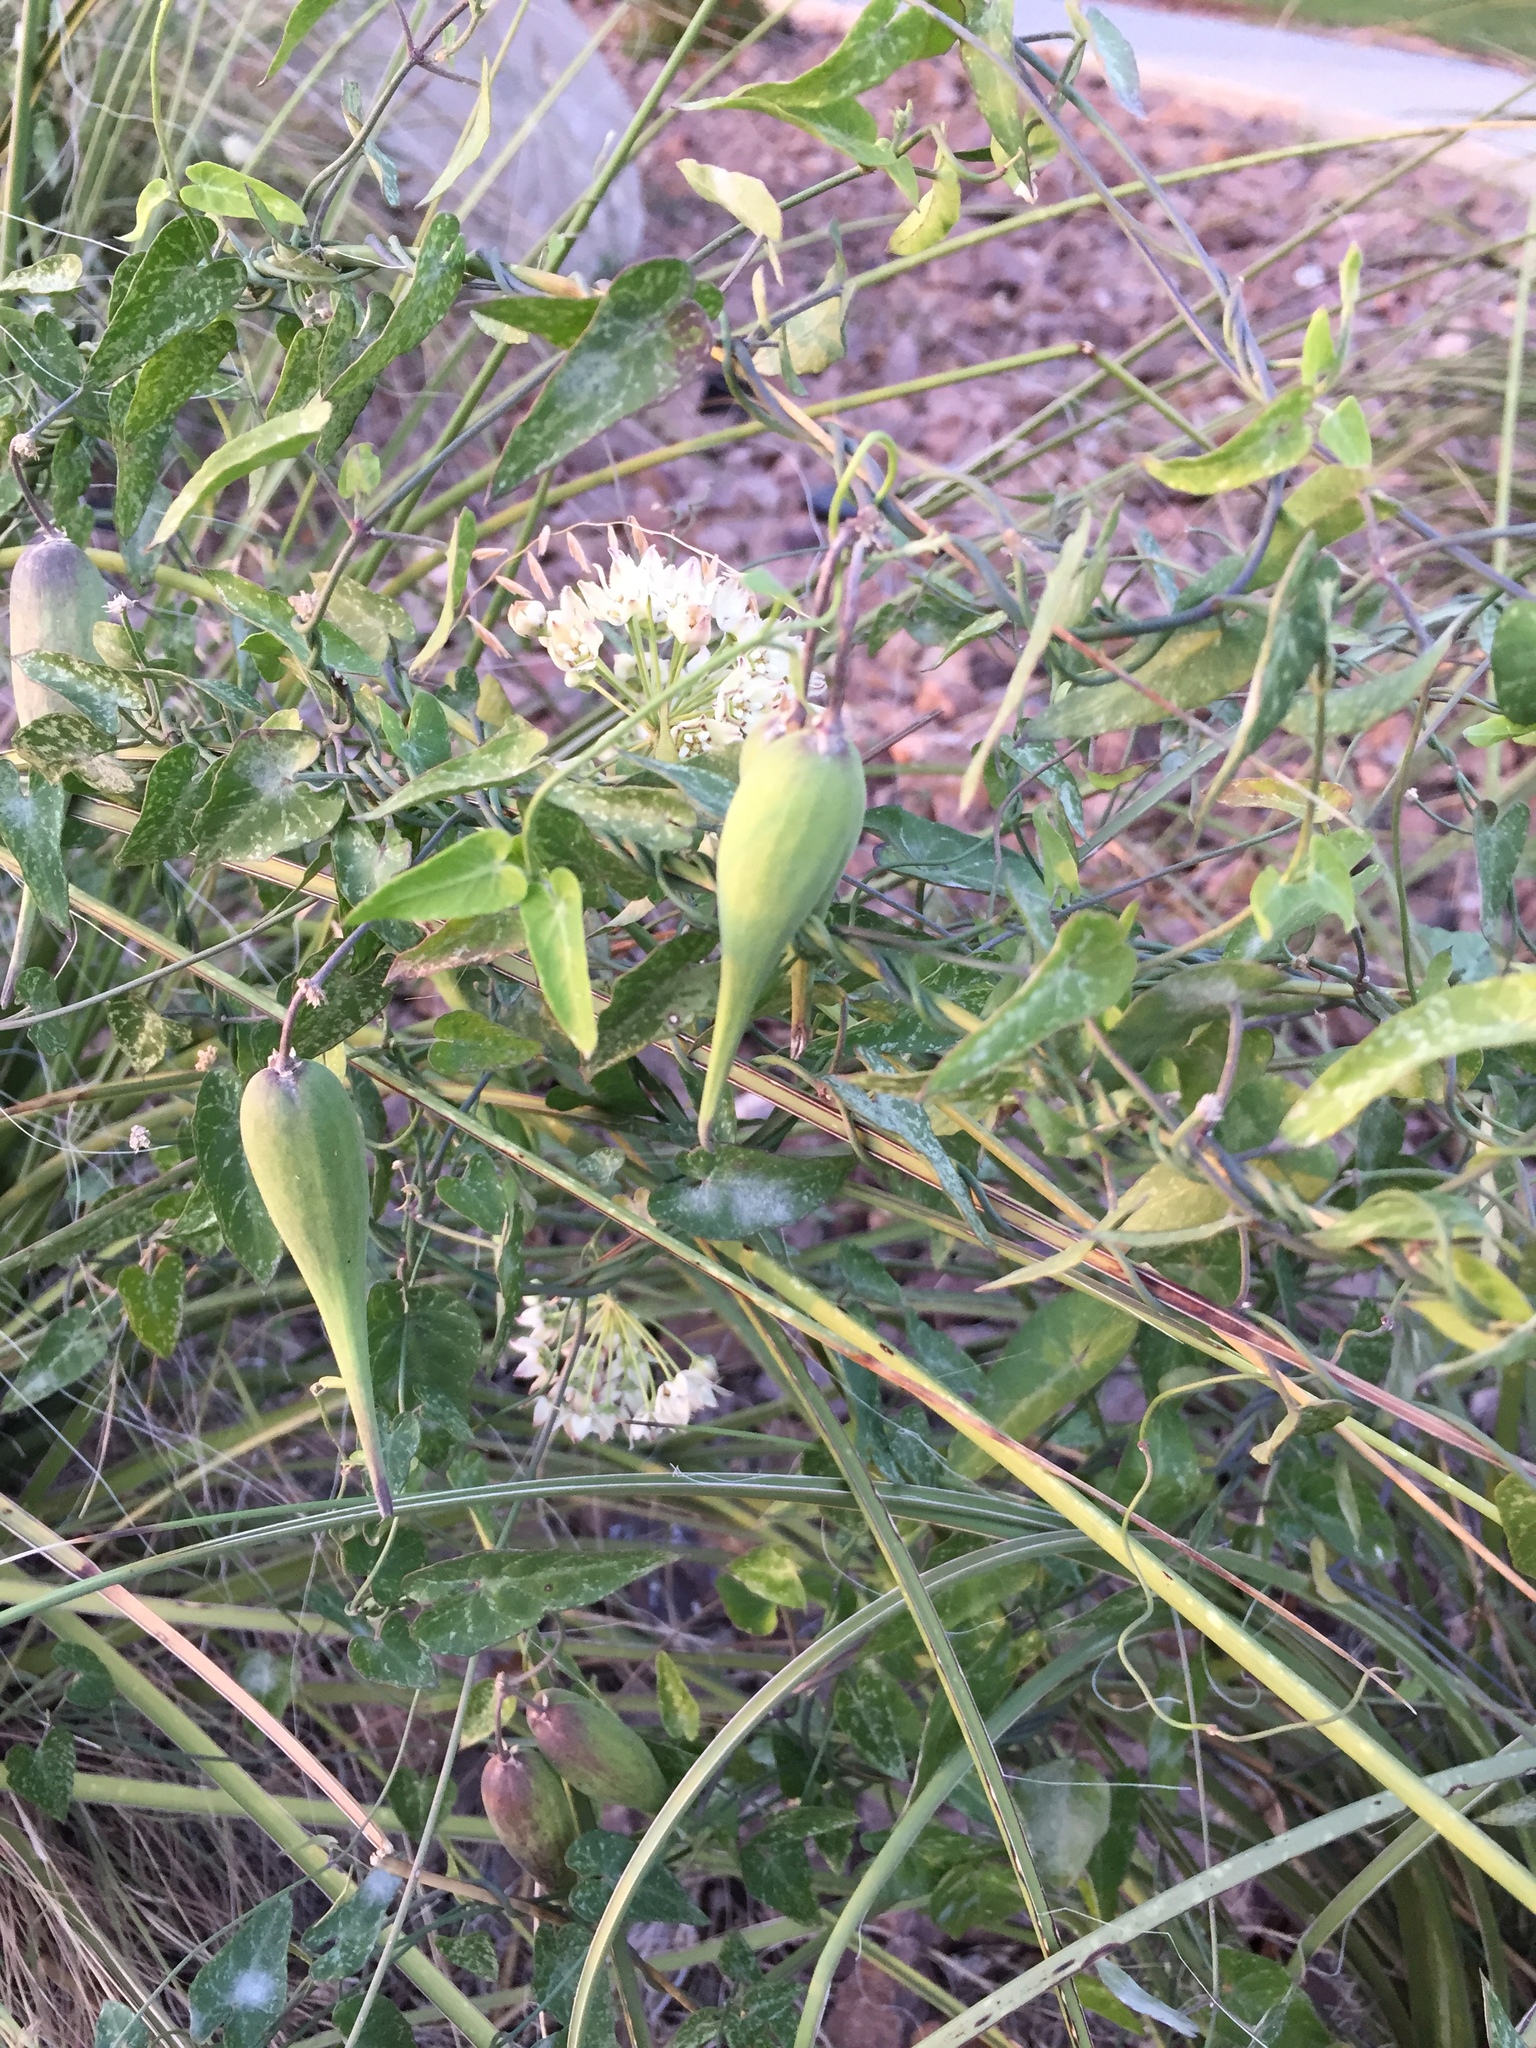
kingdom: Plantae
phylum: Tracheophyta
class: Magnoliopsida
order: Gentianales
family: Apocynaceae
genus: Funastrum
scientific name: Funastrum cynanchoides
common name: Climbing-milkweed
